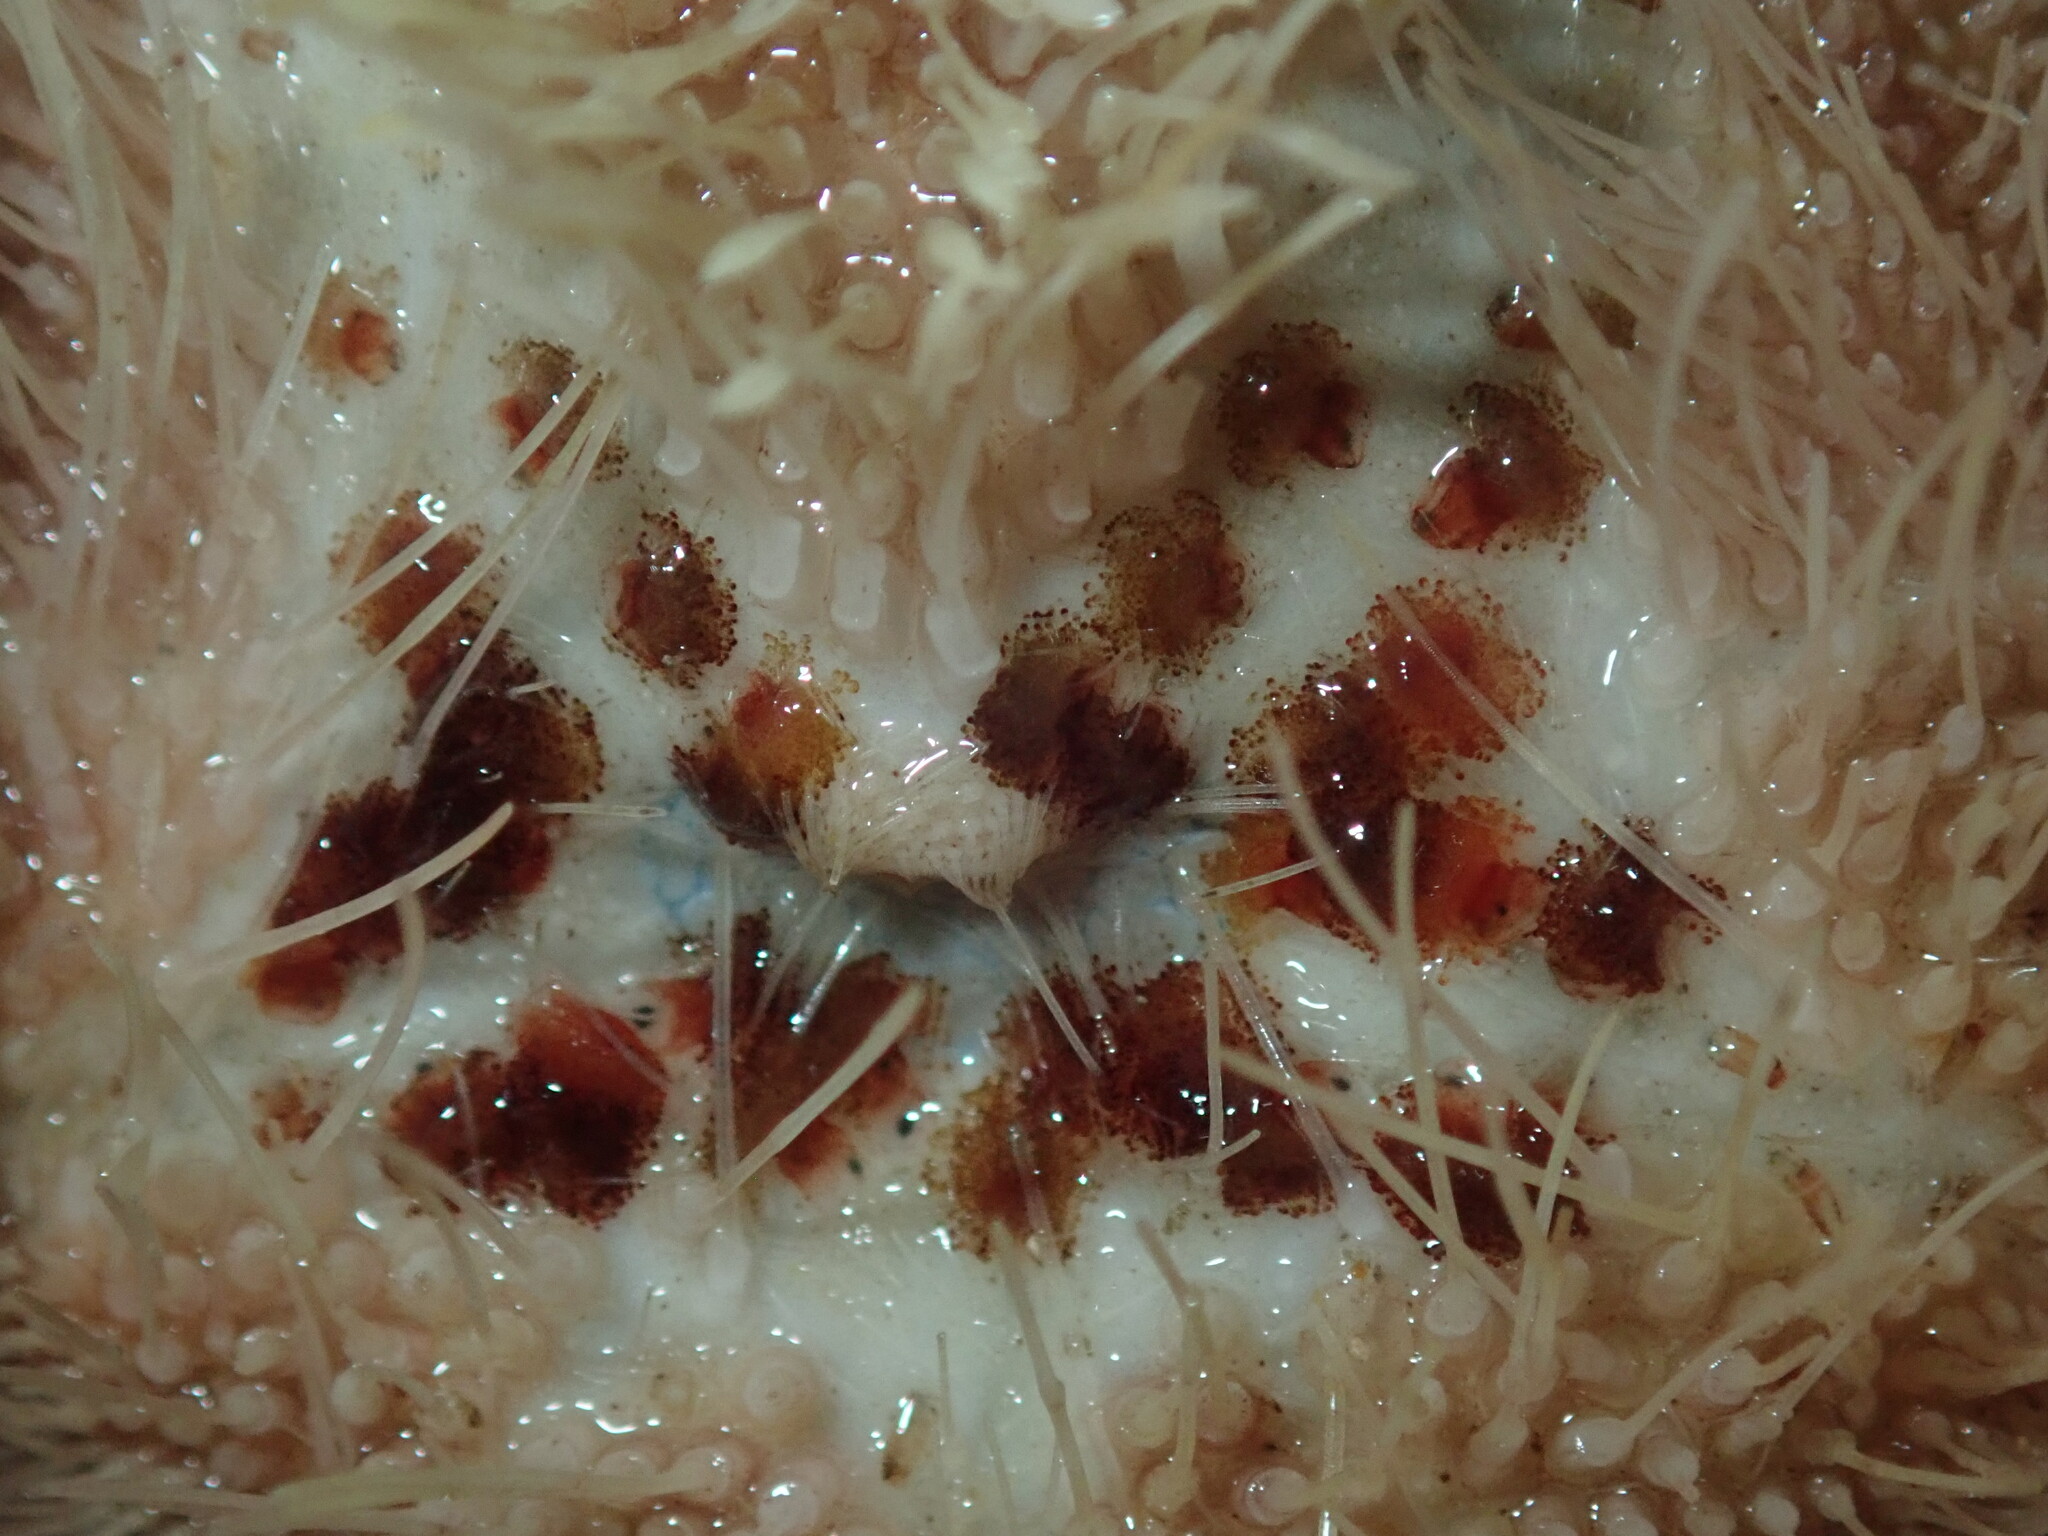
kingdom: Animalia
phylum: Echinodermata
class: Echinoidea
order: Spatangoida
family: Loveniidae
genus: Echinocardium
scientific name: Echinocardium cordatum
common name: Heart-urchin
